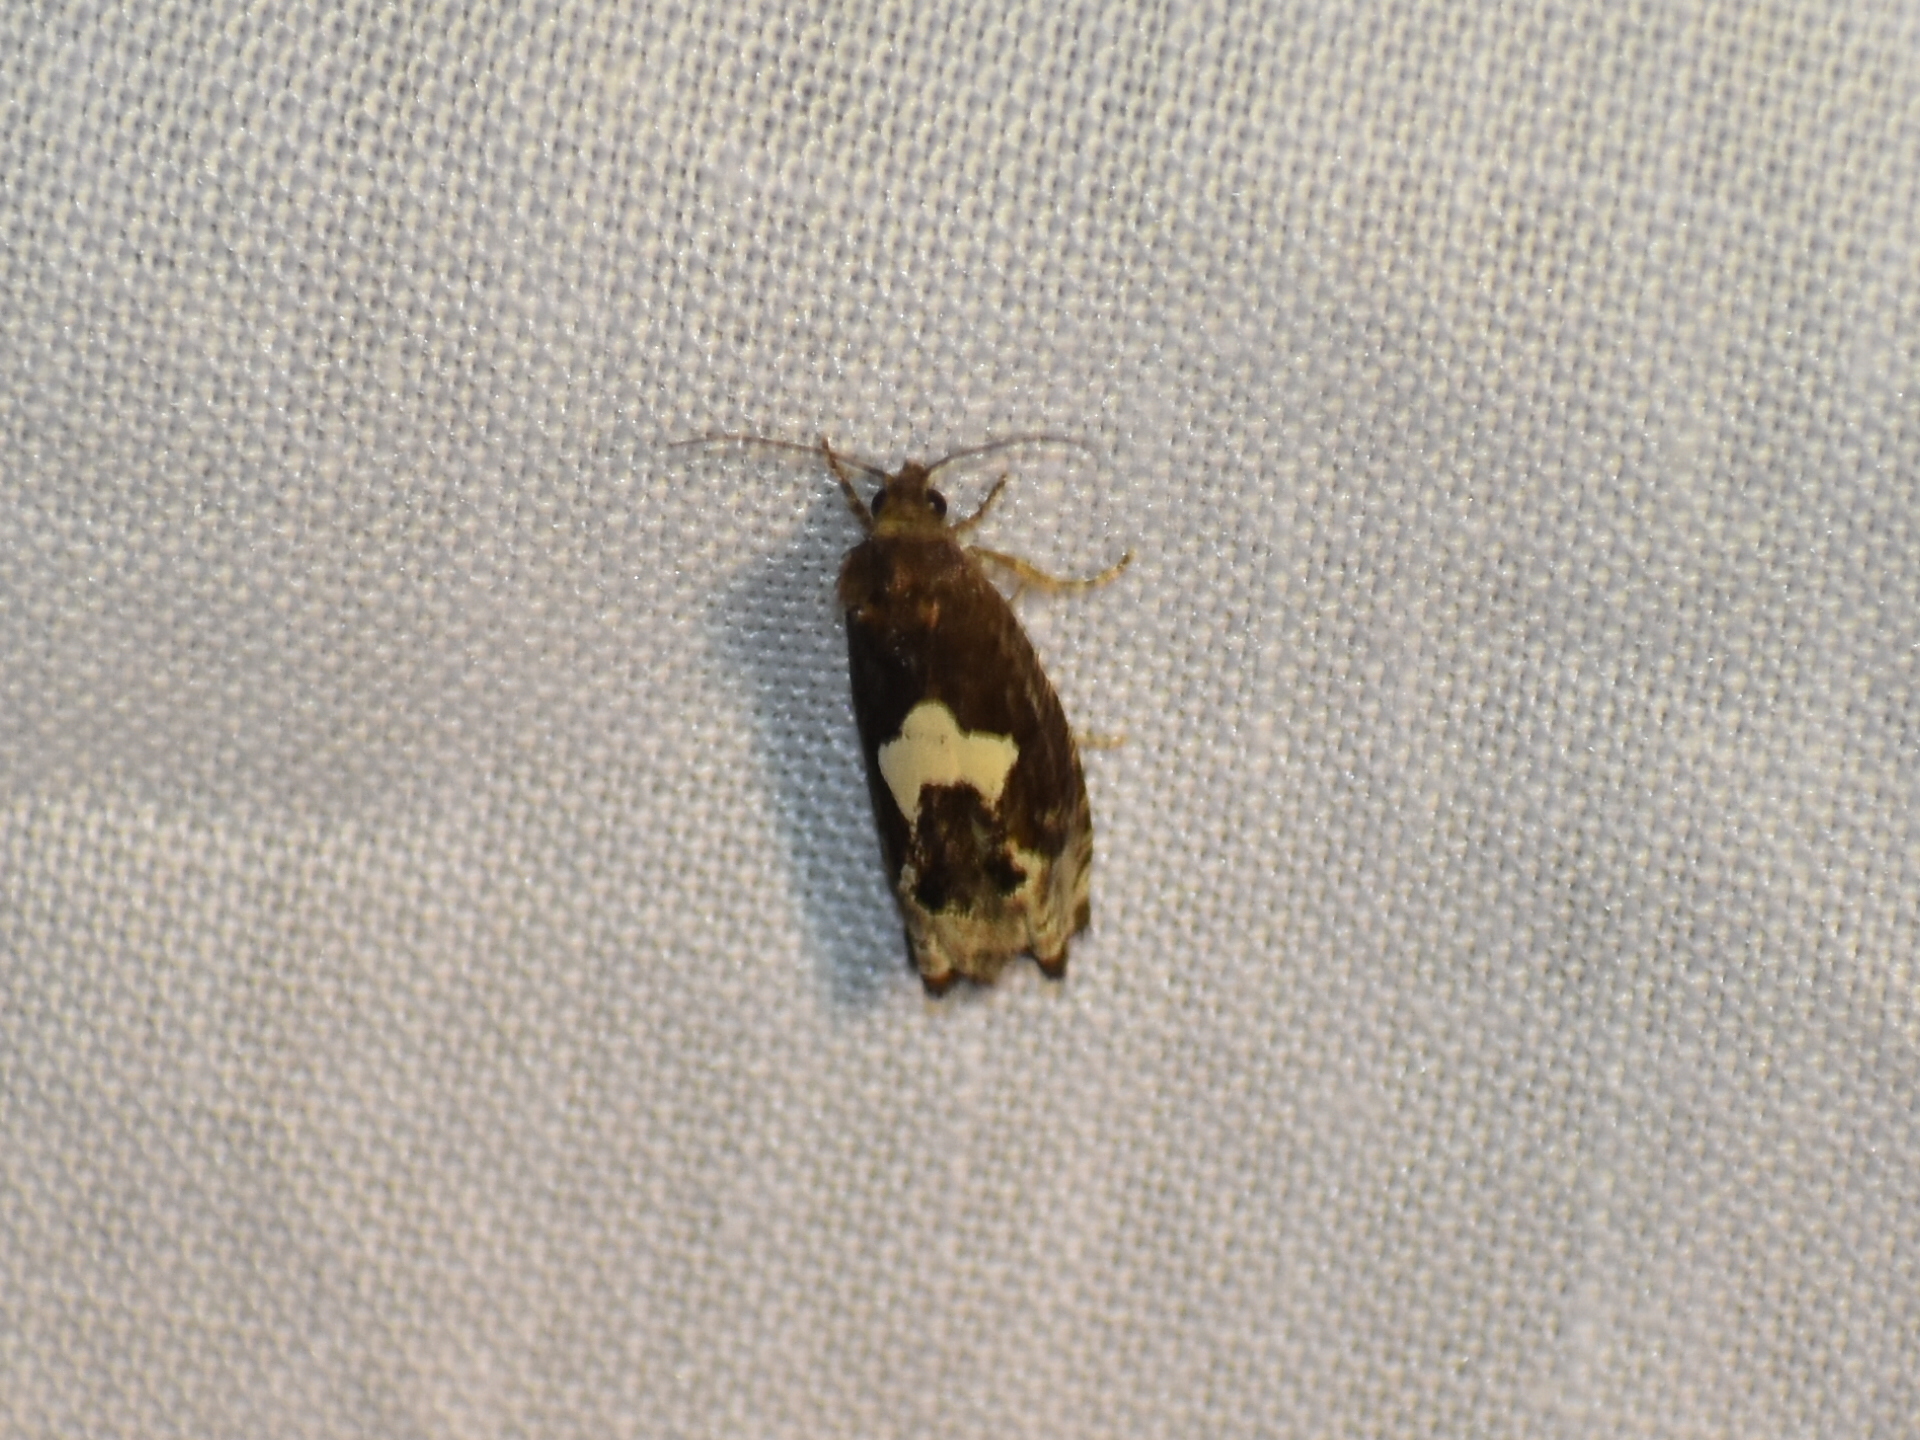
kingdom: Animalia
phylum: Arthropoda
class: Insecta
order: Lepidoptera
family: Tortricidae
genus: Epiblema
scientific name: Epiblema otiosana
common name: Bidens borer moth
